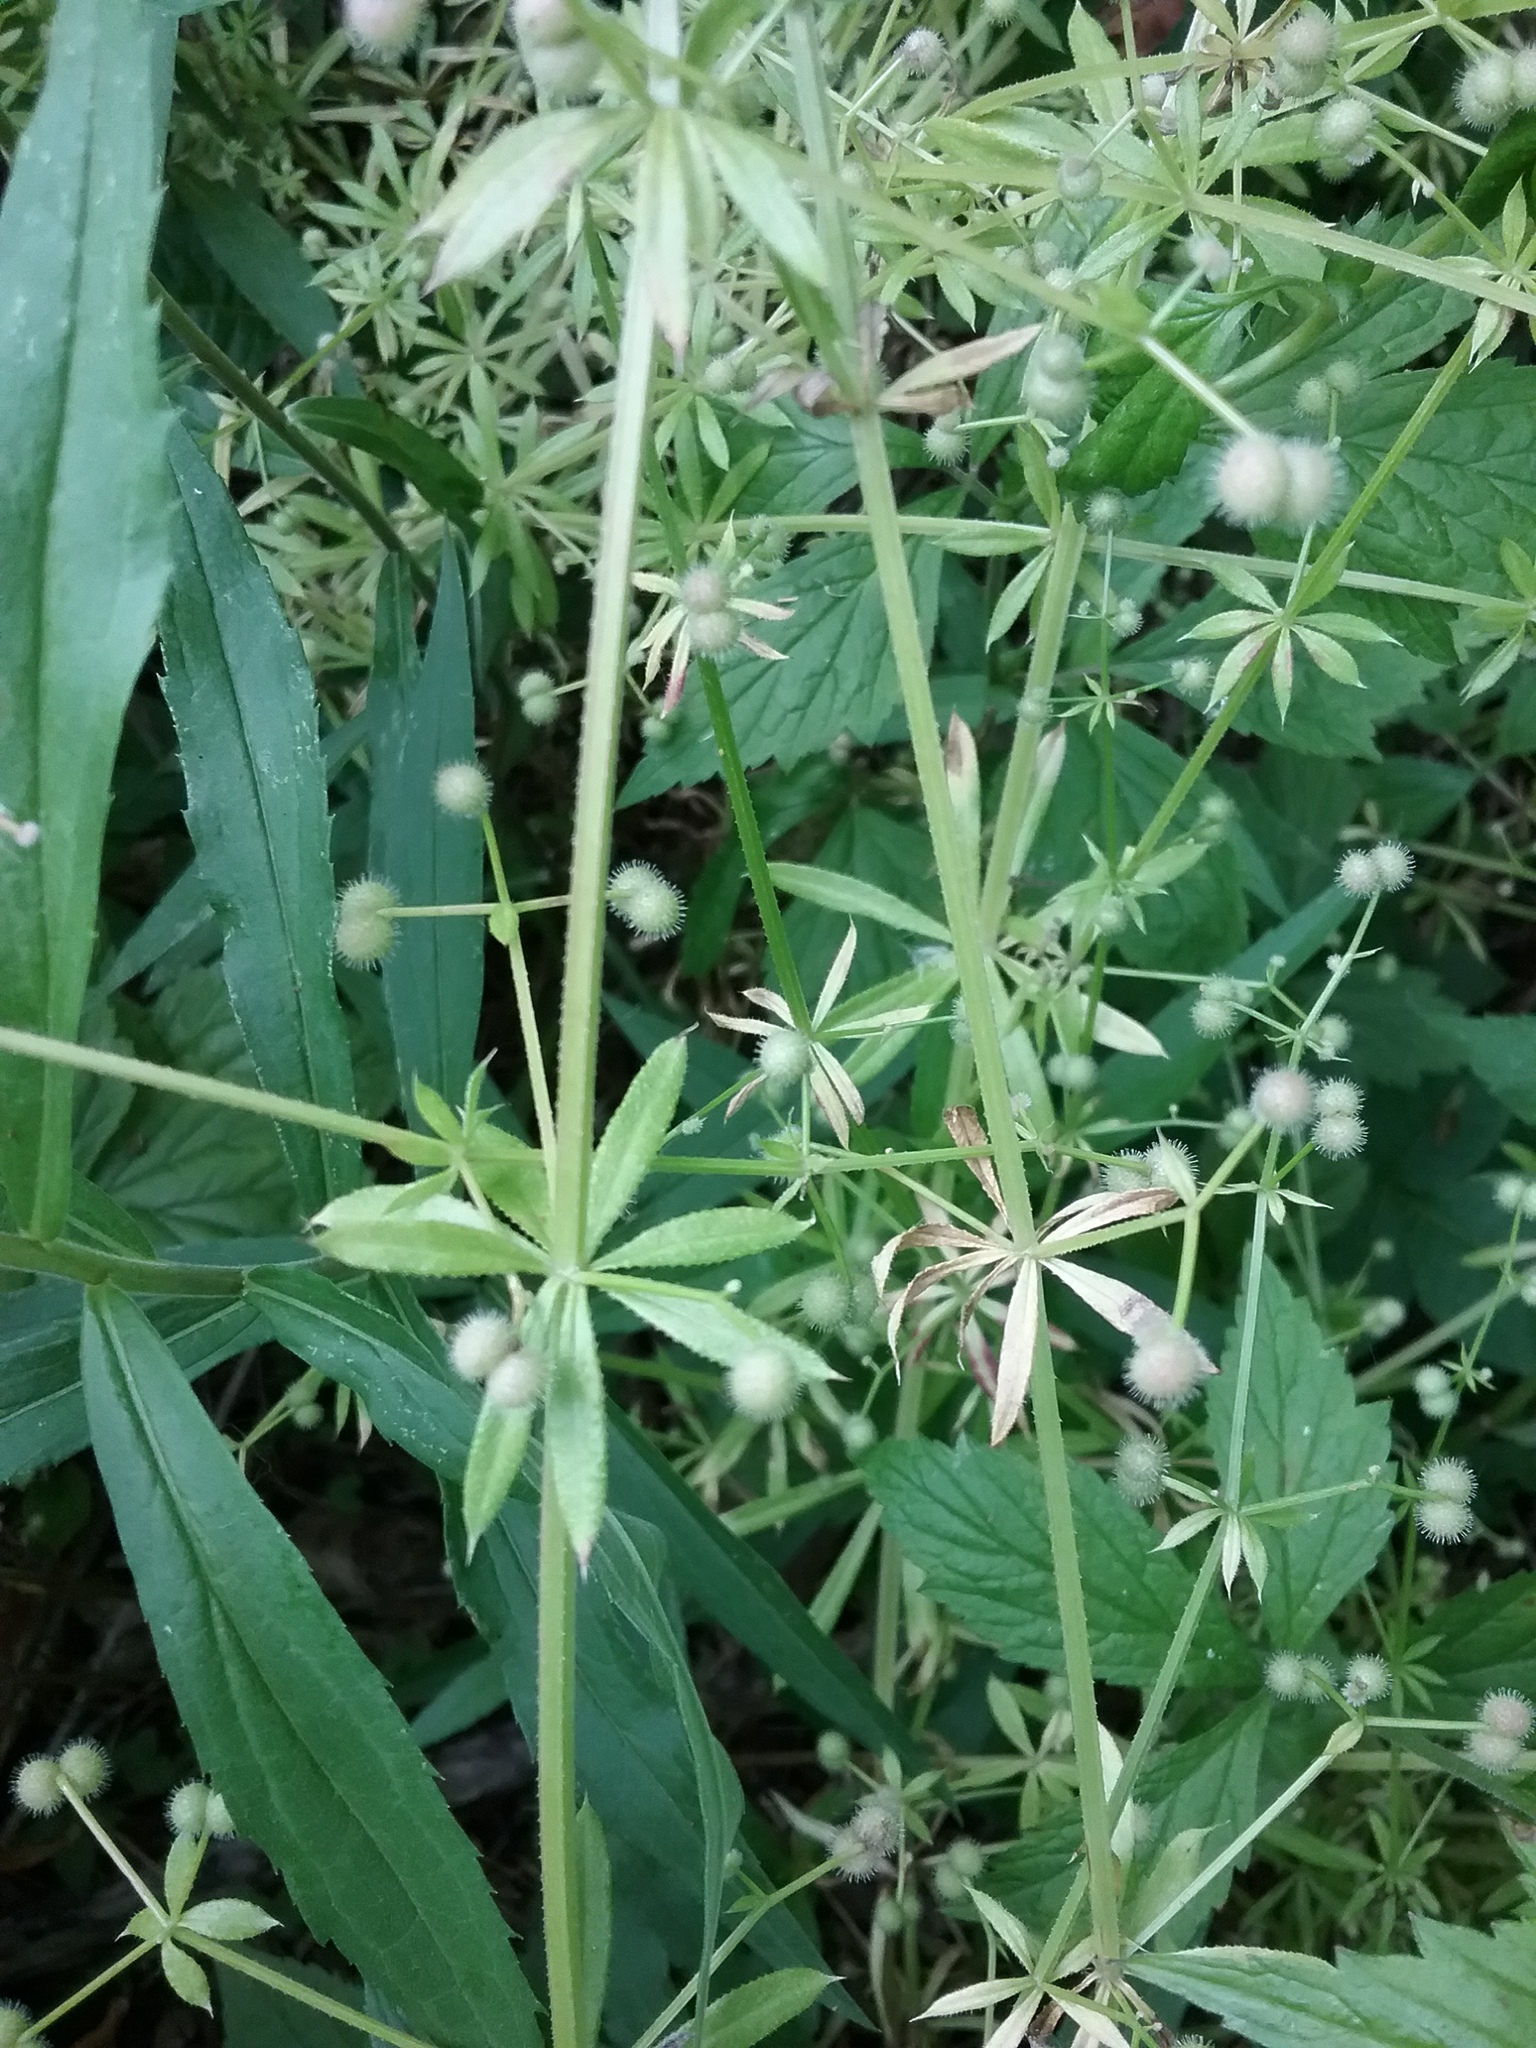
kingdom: Plantae
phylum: Tracheophyta
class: Magnoliopsida
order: Gentianales
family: Rubiaceae
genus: Galium
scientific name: Galium aparine
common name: Cleavers
